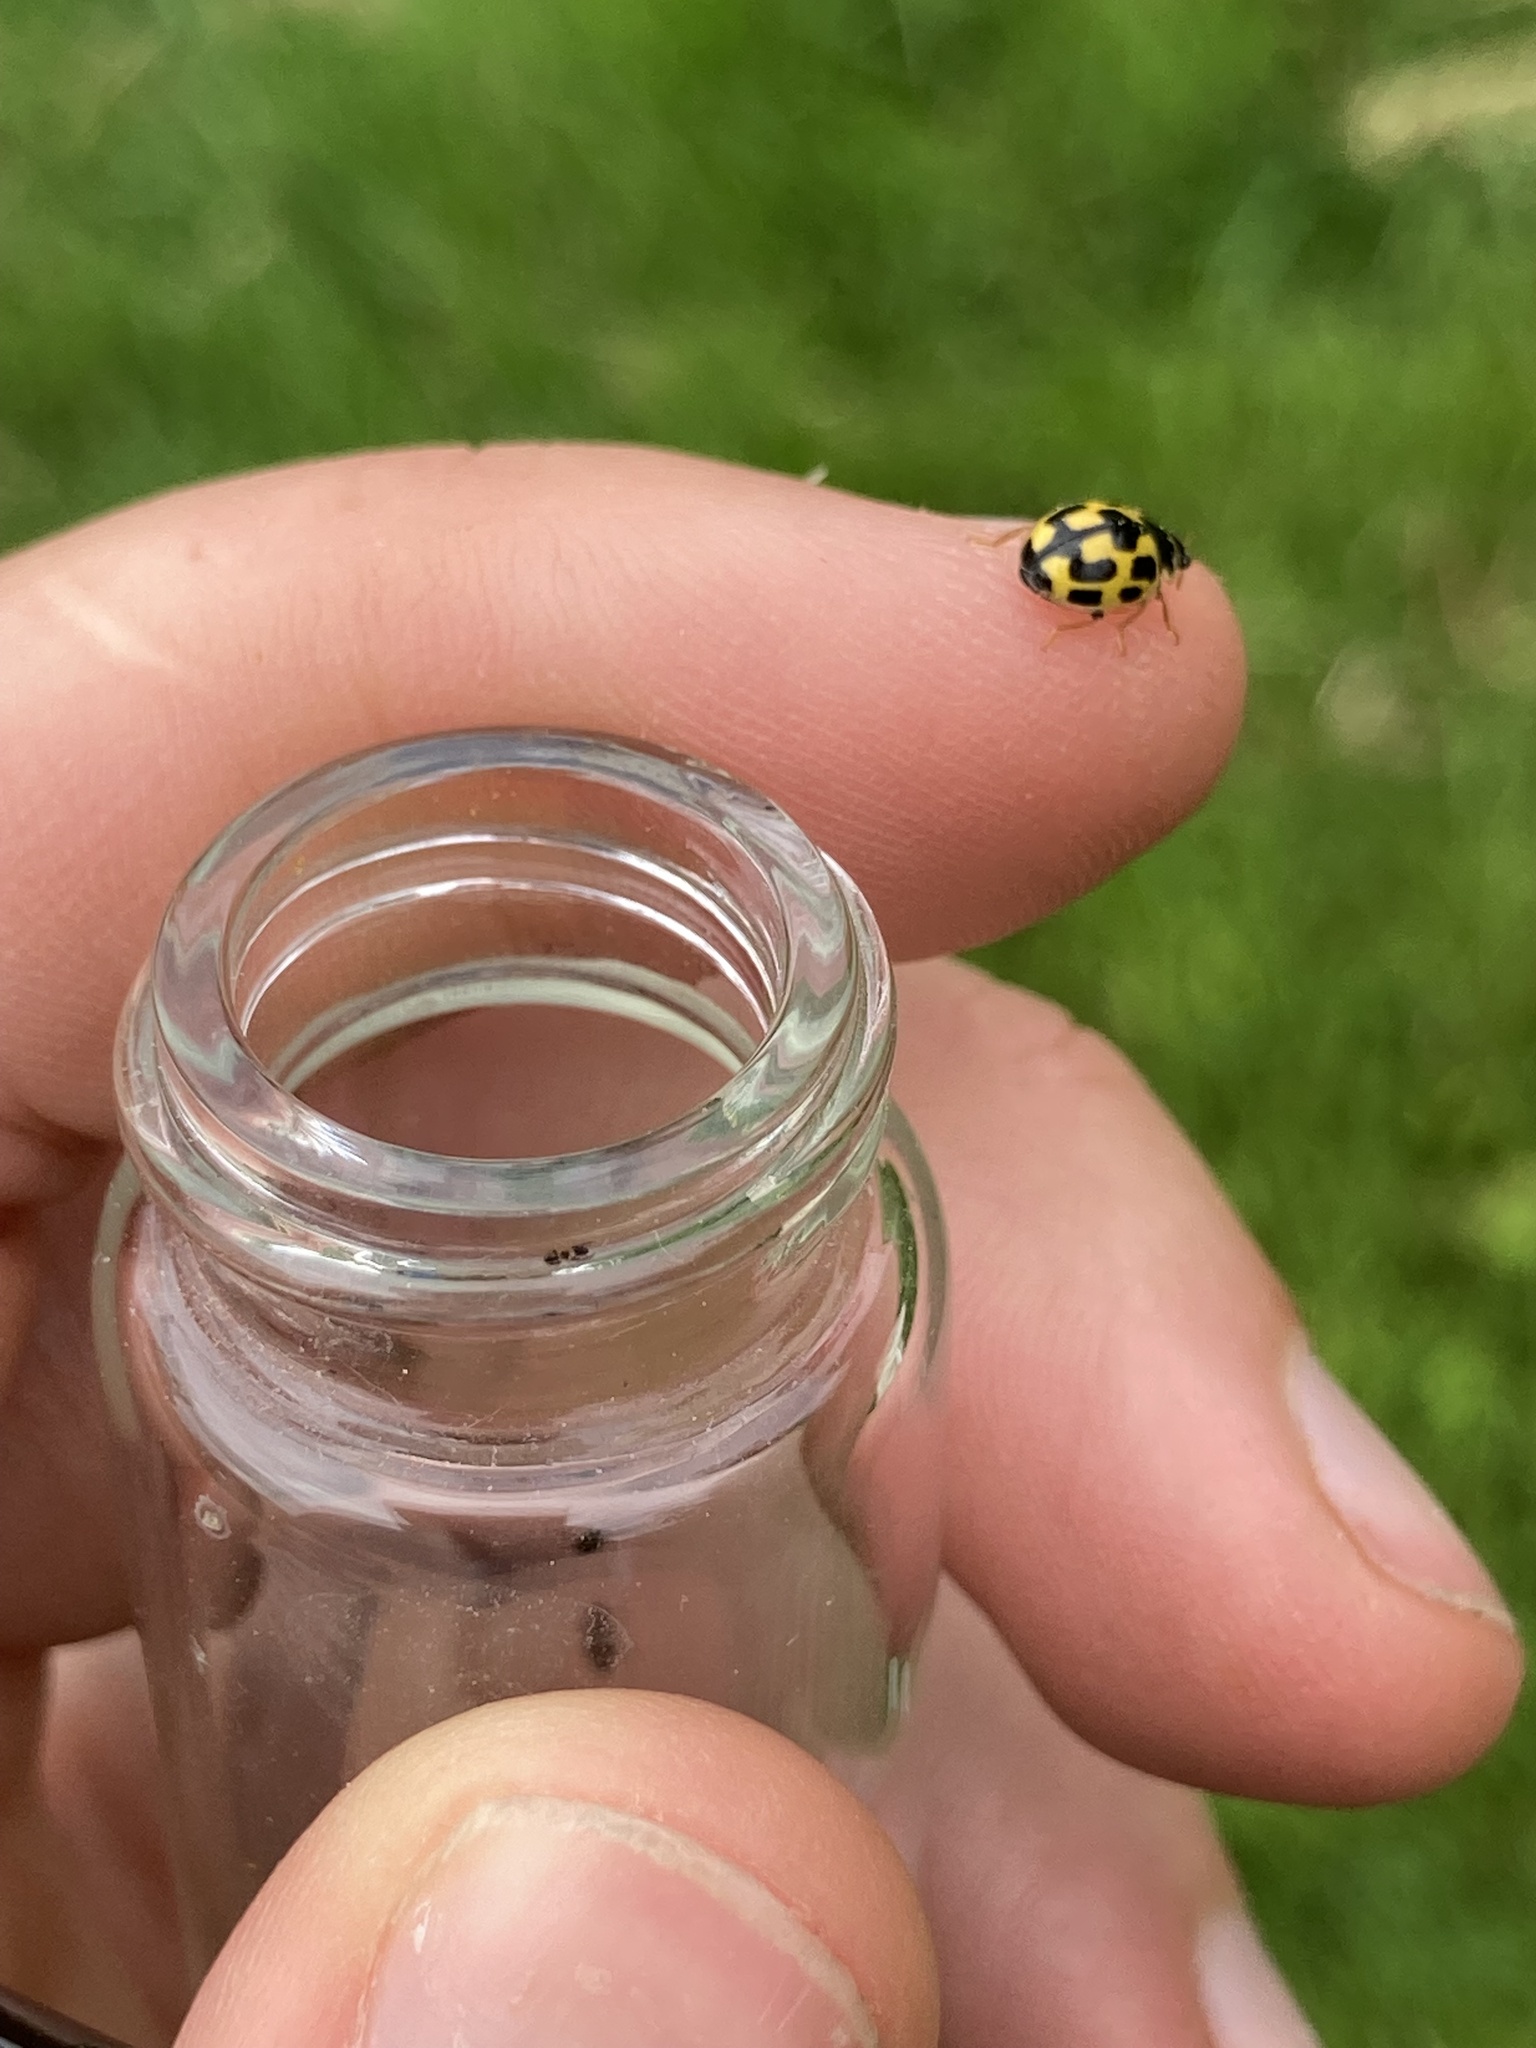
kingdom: Animalia
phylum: Arthropoda
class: Insecta
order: Coleoptera
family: Coccinellidae
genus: Propylaea
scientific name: Propylaea quatuordecimpunctata
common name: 14-spotted ladybird beetle
